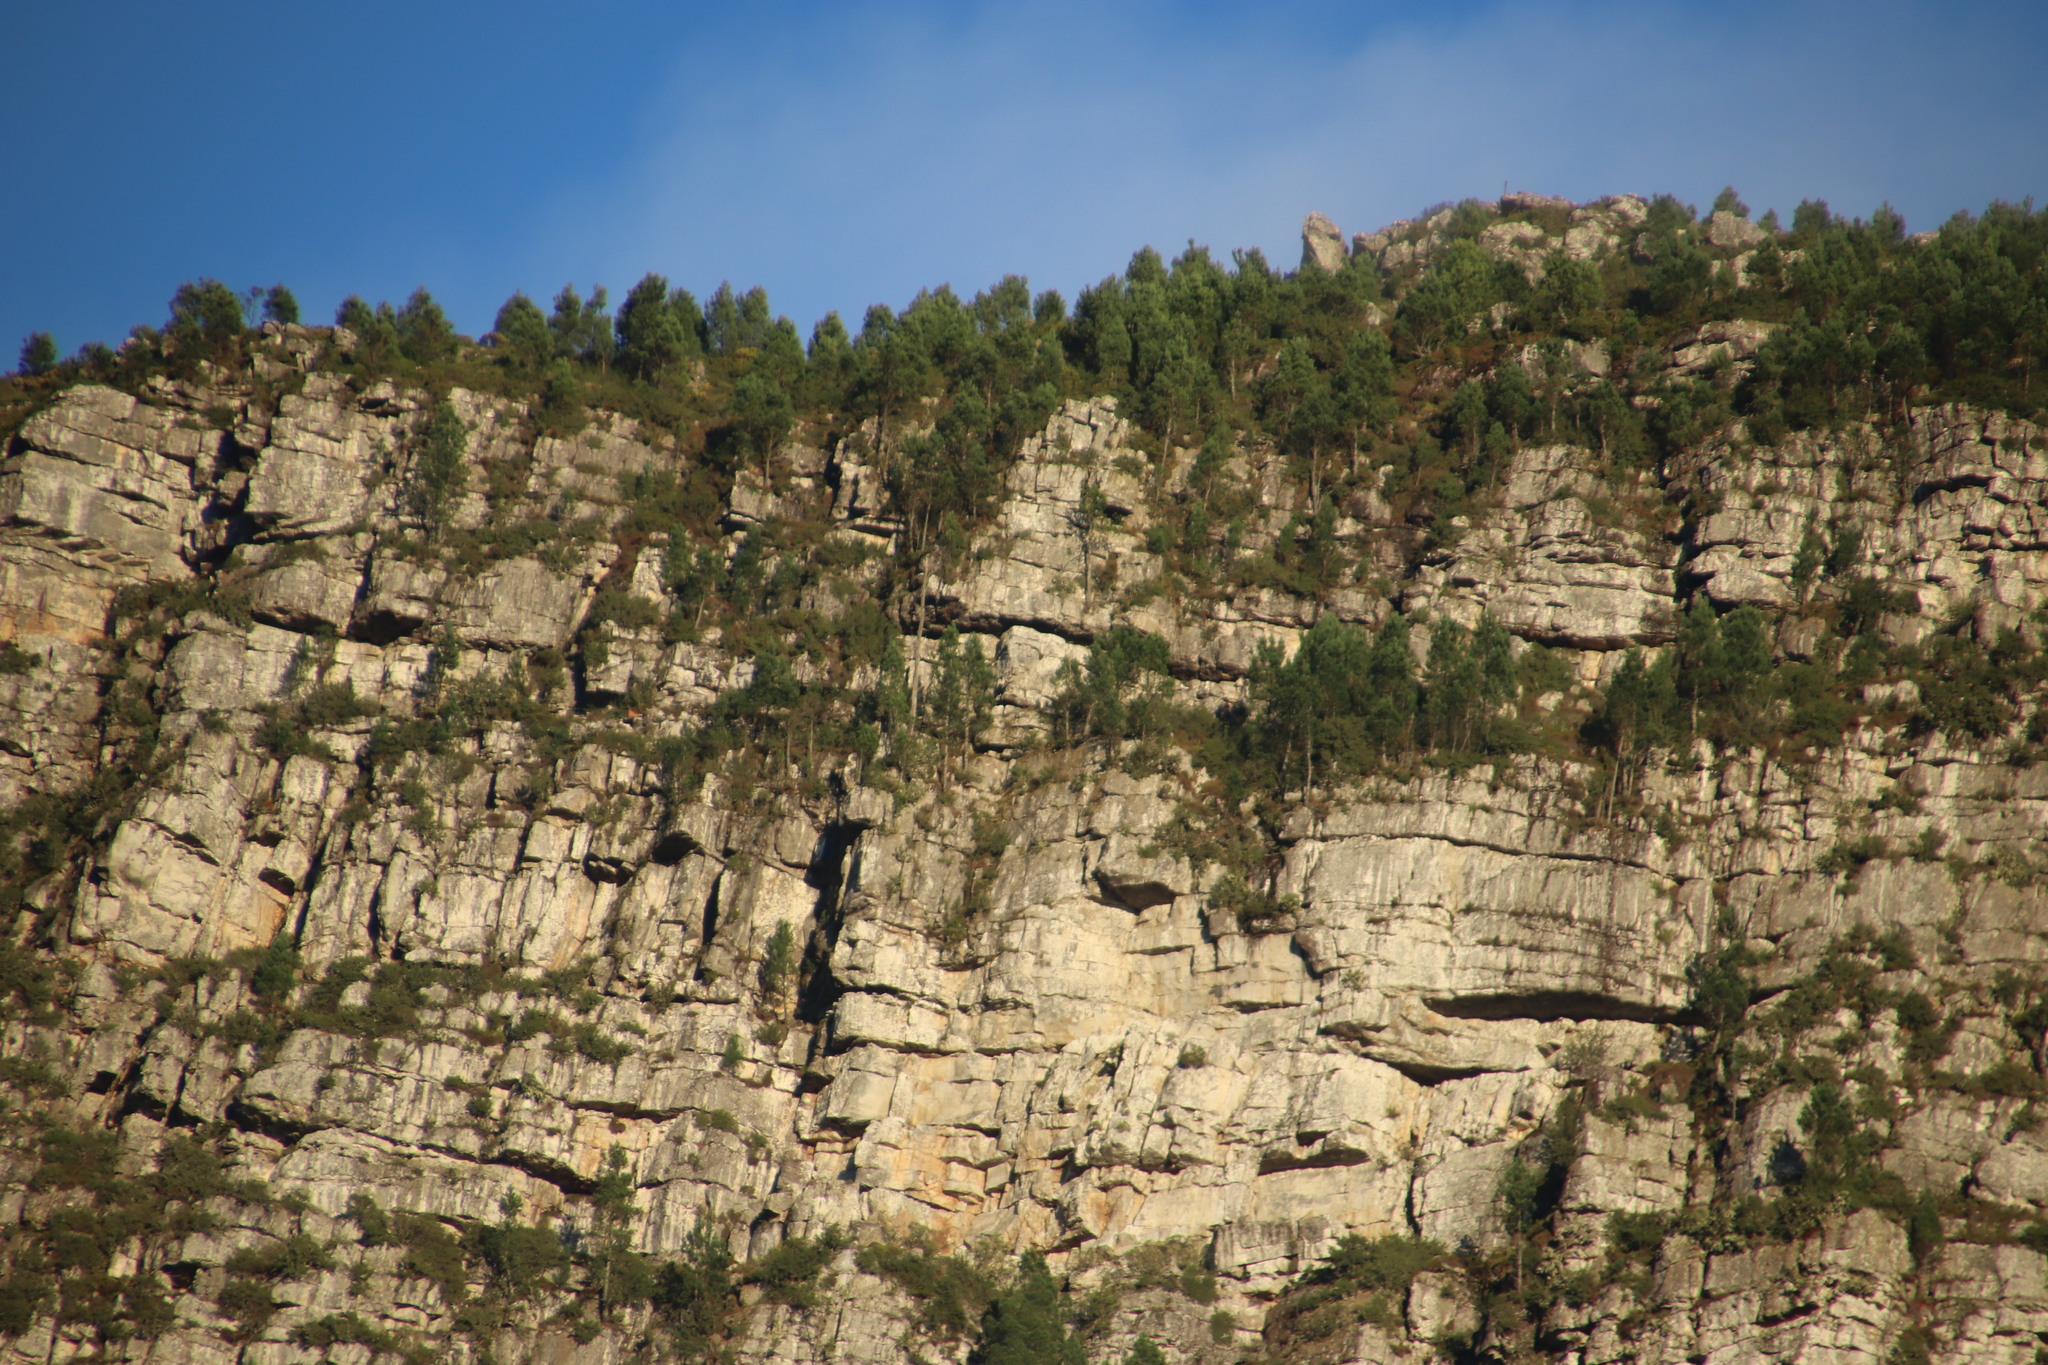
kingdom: Plantae
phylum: Tracheophyta
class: Pinopsida
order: Pinales
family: Pinaceae
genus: Pinus
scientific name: Pinus radiata
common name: Monterey pine
